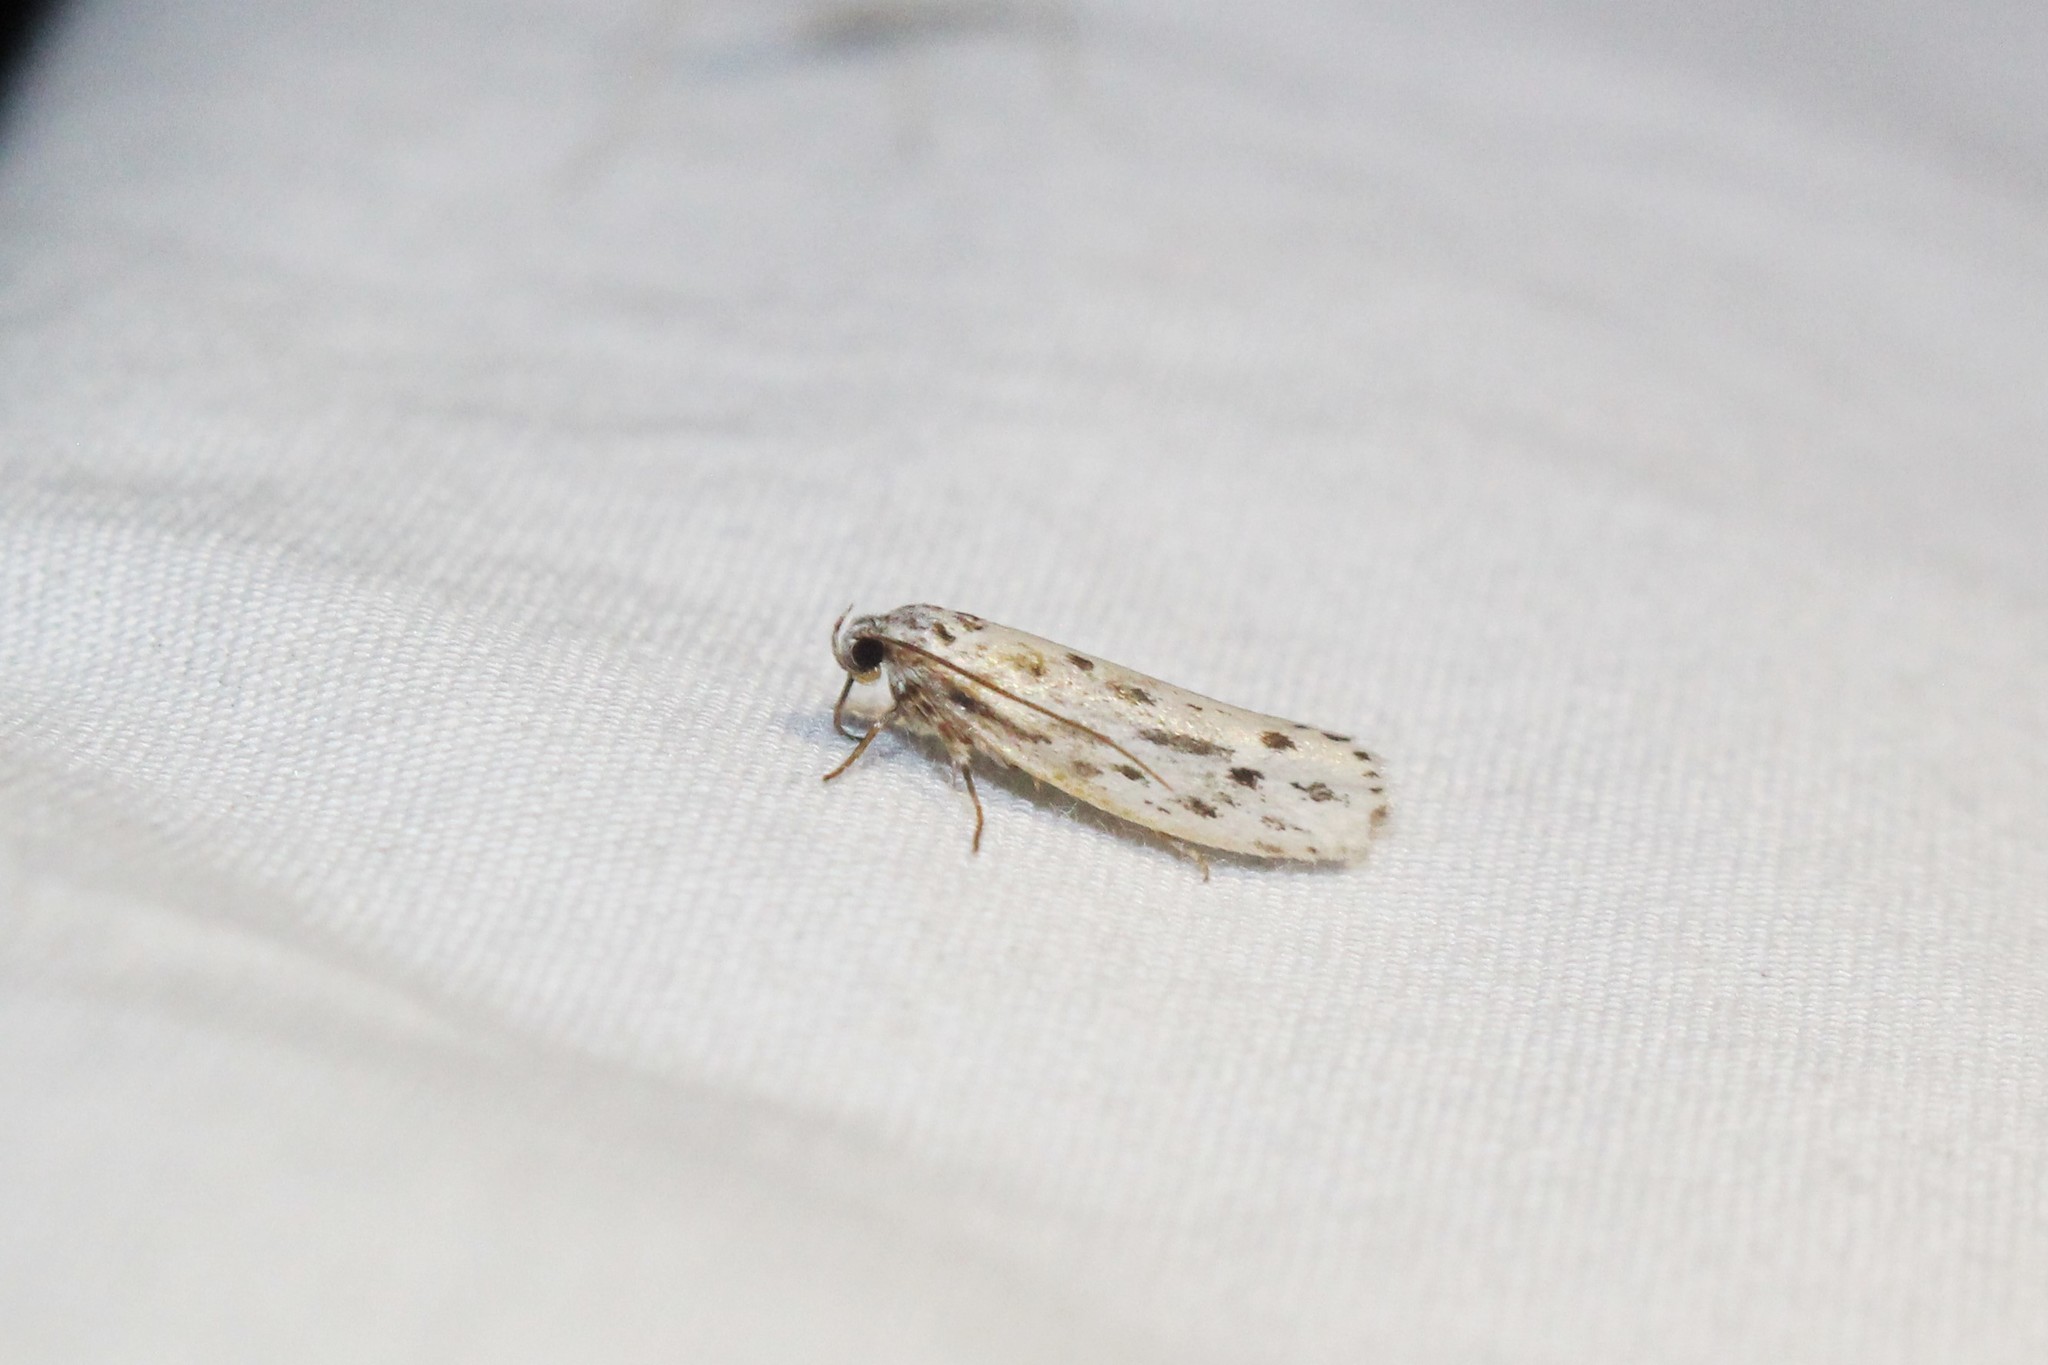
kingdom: Animalia
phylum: Arthropoda
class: Insecta
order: Lepidoptera
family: Ethmiidae
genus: Ethmia
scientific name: Ethmia longimaculella
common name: Streaked ethmia moth
